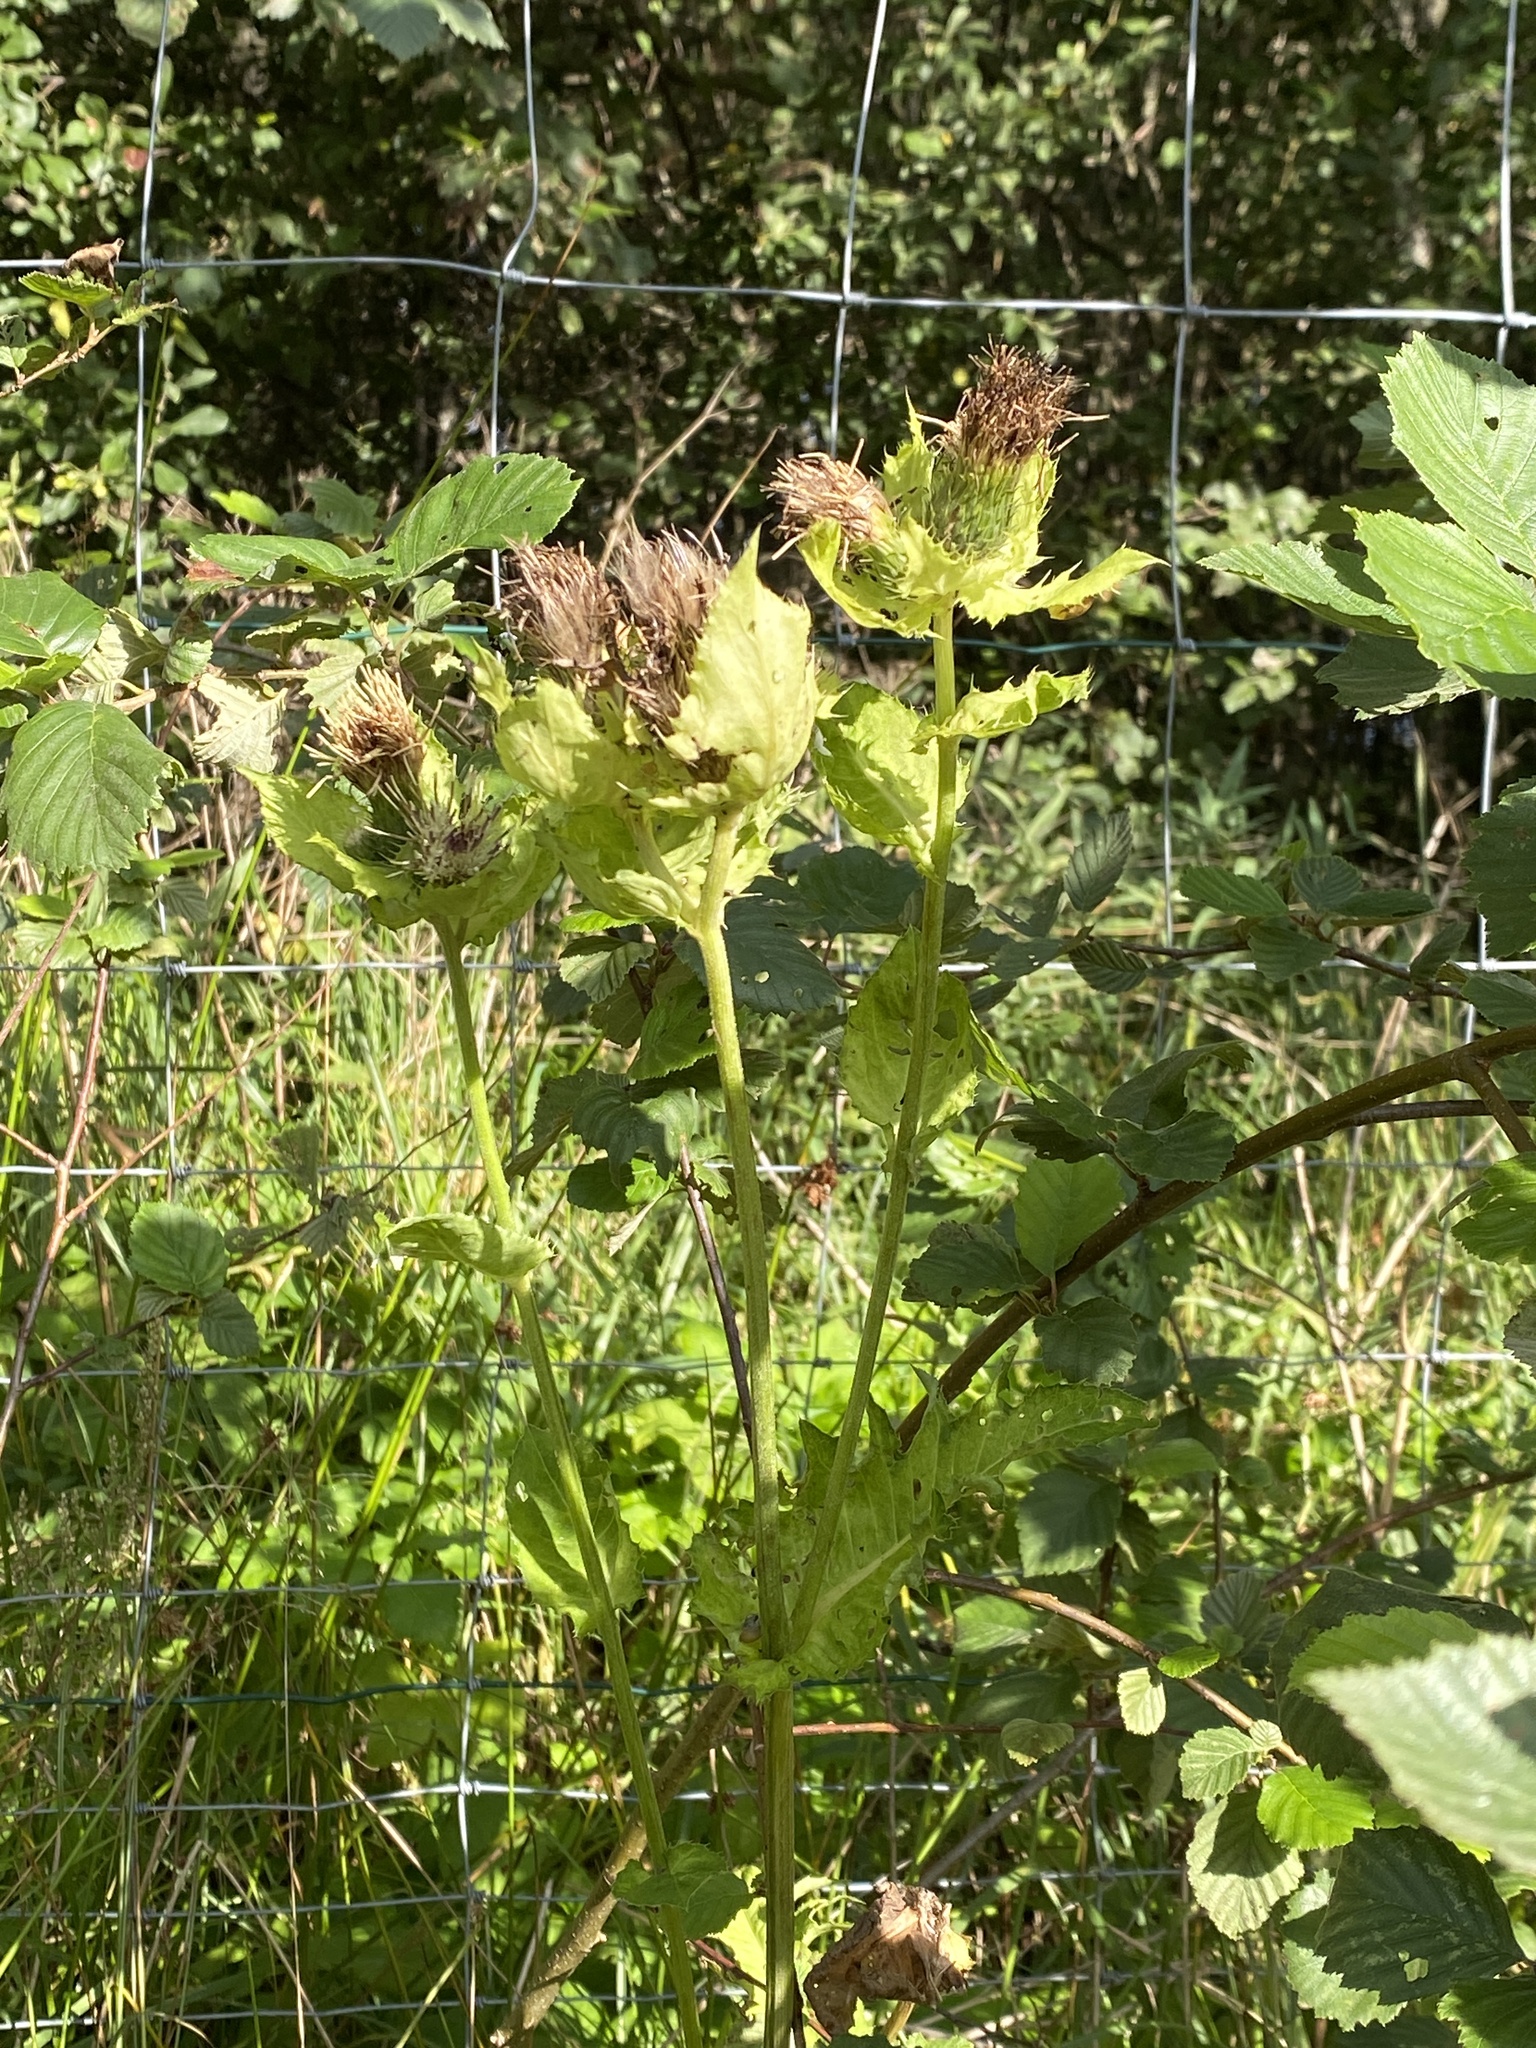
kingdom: Plantae
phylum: Tracheophyta
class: Magnoliopsida
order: Asterales
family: Asteraceae
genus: Cirsium
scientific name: Cirsium oleraceum
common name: Cabbage thistle
